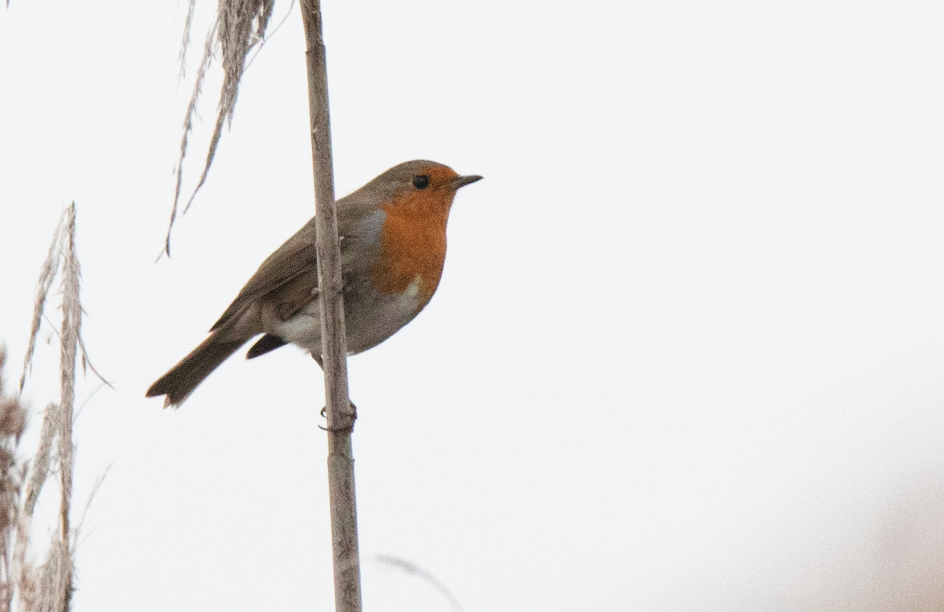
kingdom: Animalia
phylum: Chordata
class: Aves
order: Passeriformes
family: Muscicapidae
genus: Erithacus
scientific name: Erithacus rubecula
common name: European robin
